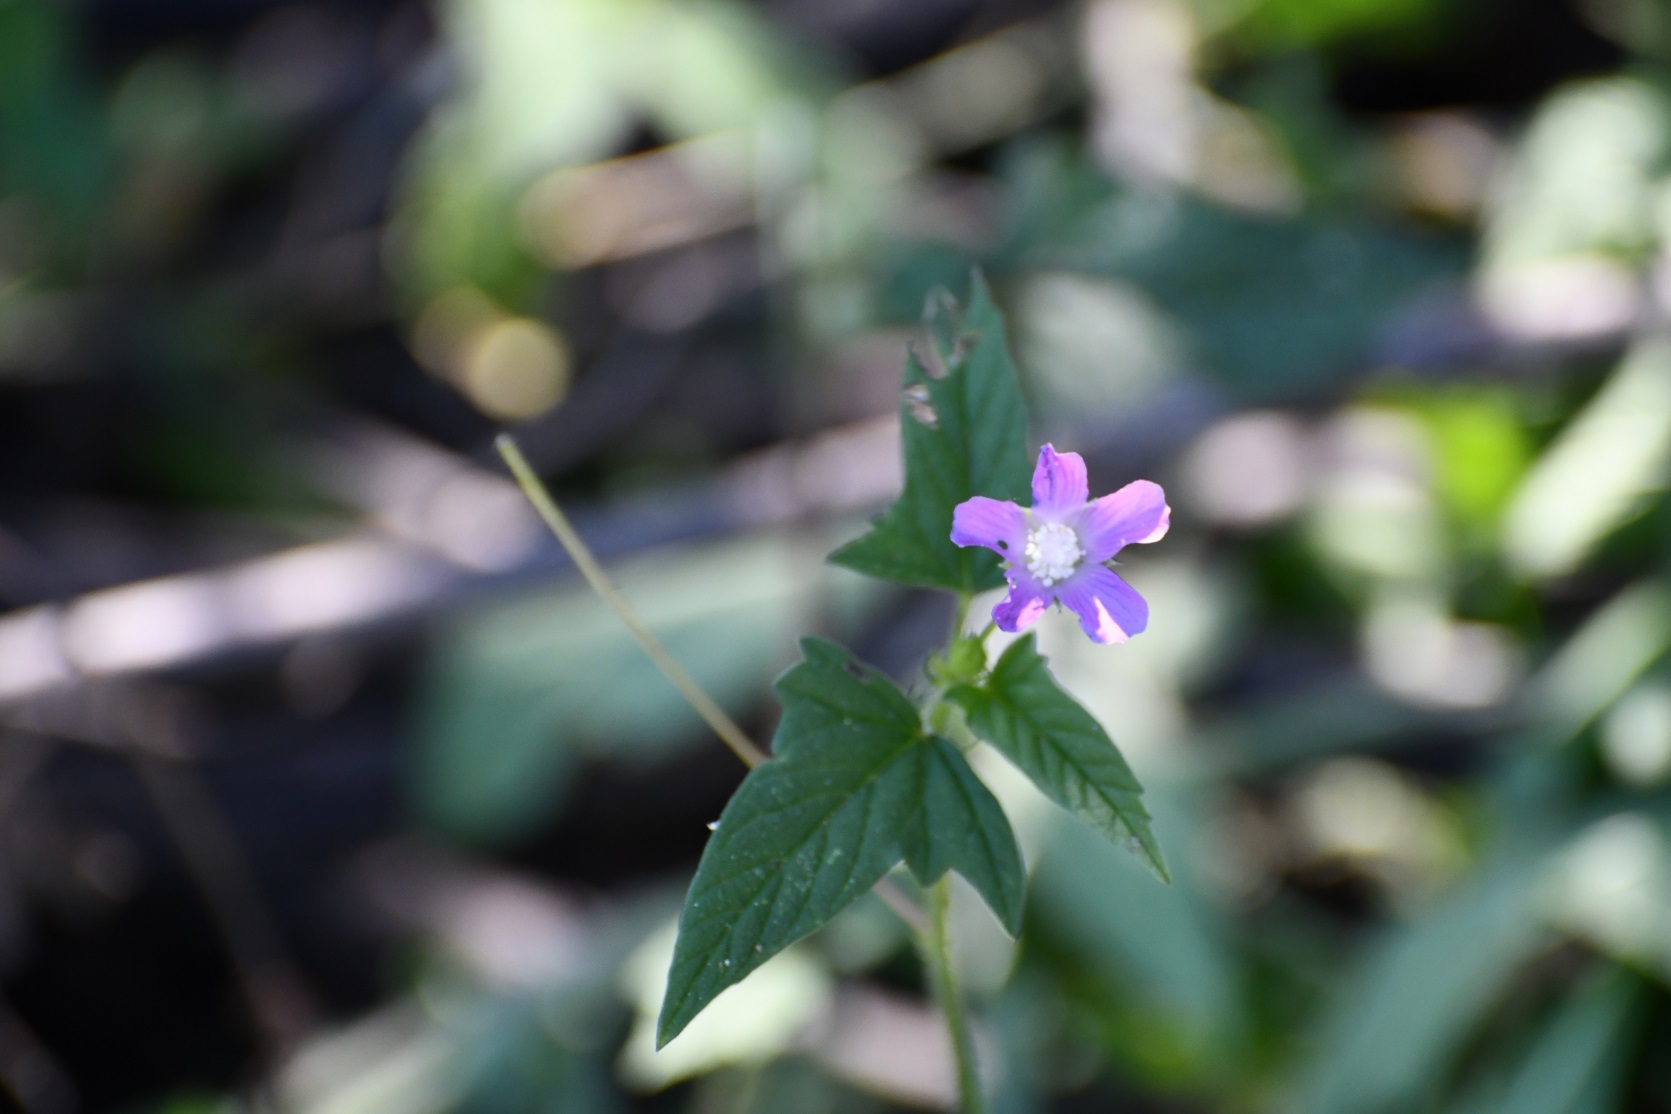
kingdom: Plantae
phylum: Tracheophyta
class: Magnoliopsida
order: Malvales
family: Malvaceae
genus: Anoda
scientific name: Anoda cristata
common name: Spurred anoda
